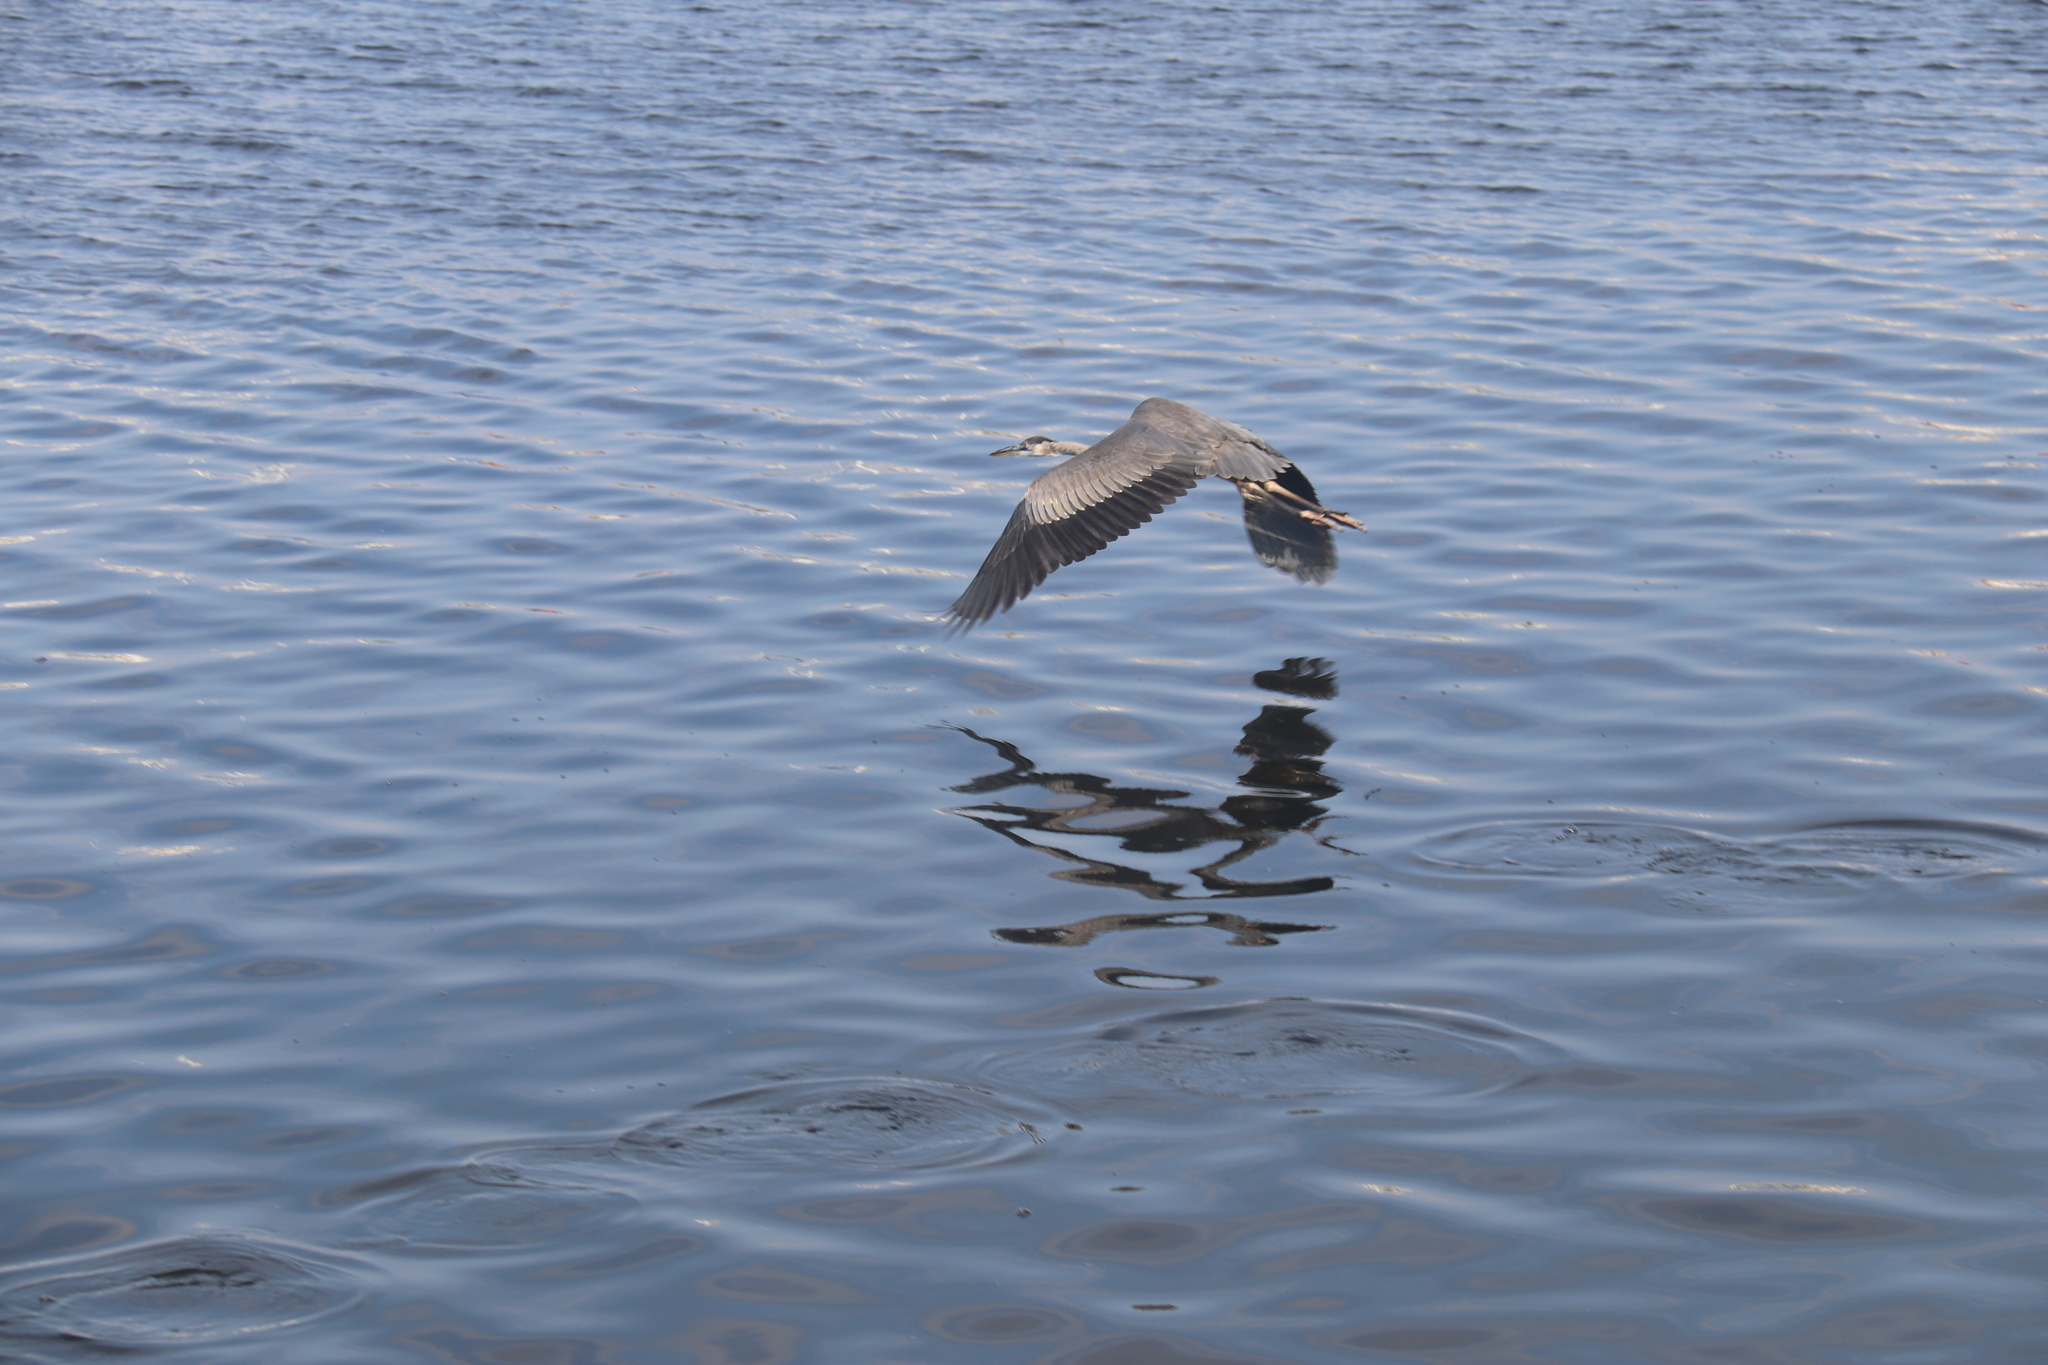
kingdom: Animalia
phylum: Chordata
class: Aves
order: Pelecaniformes
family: Ardeidae
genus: Ardea
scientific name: Ardea herodias
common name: Great blue heron
